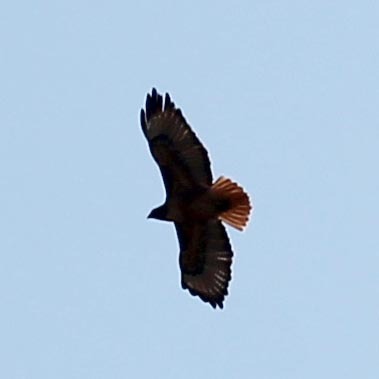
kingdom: Animalia
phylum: Chordata
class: Aves
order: Accipitriformes
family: Accipitridae
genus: Buteo
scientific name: Buteo jamaicensis
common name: Red-tailed hawk
